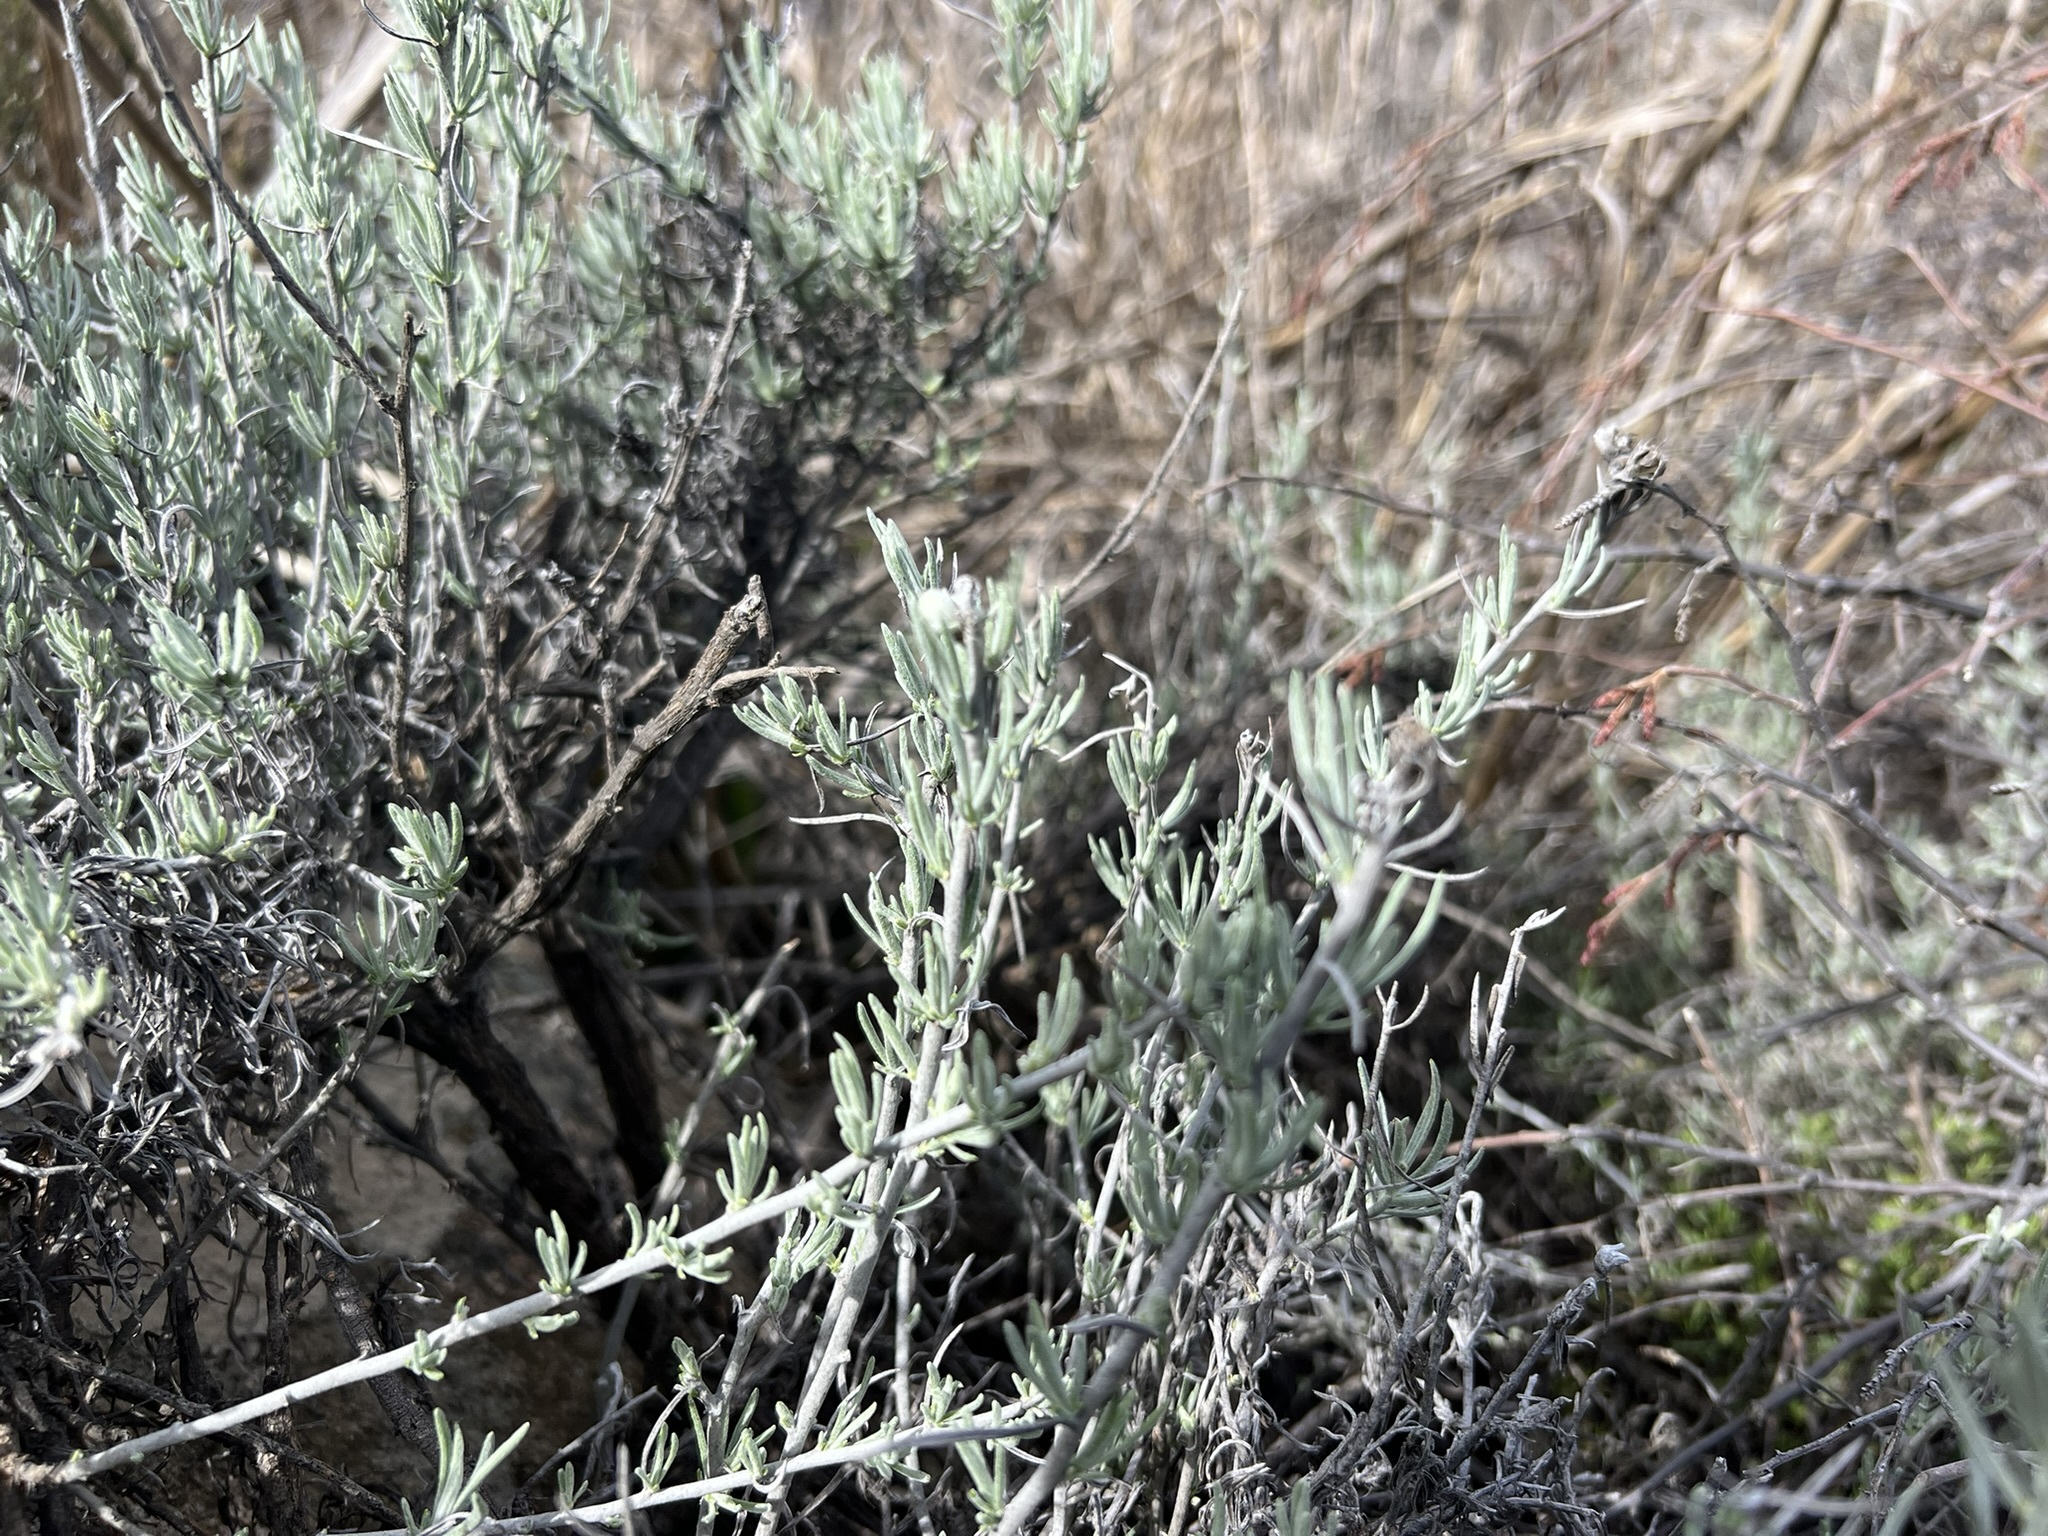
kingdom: Plantae
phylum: Tracheophyta
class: Magnoliopsida
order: Asterales
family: Asteraceae
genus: Tetradymia
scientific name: Tetradymia comosa
